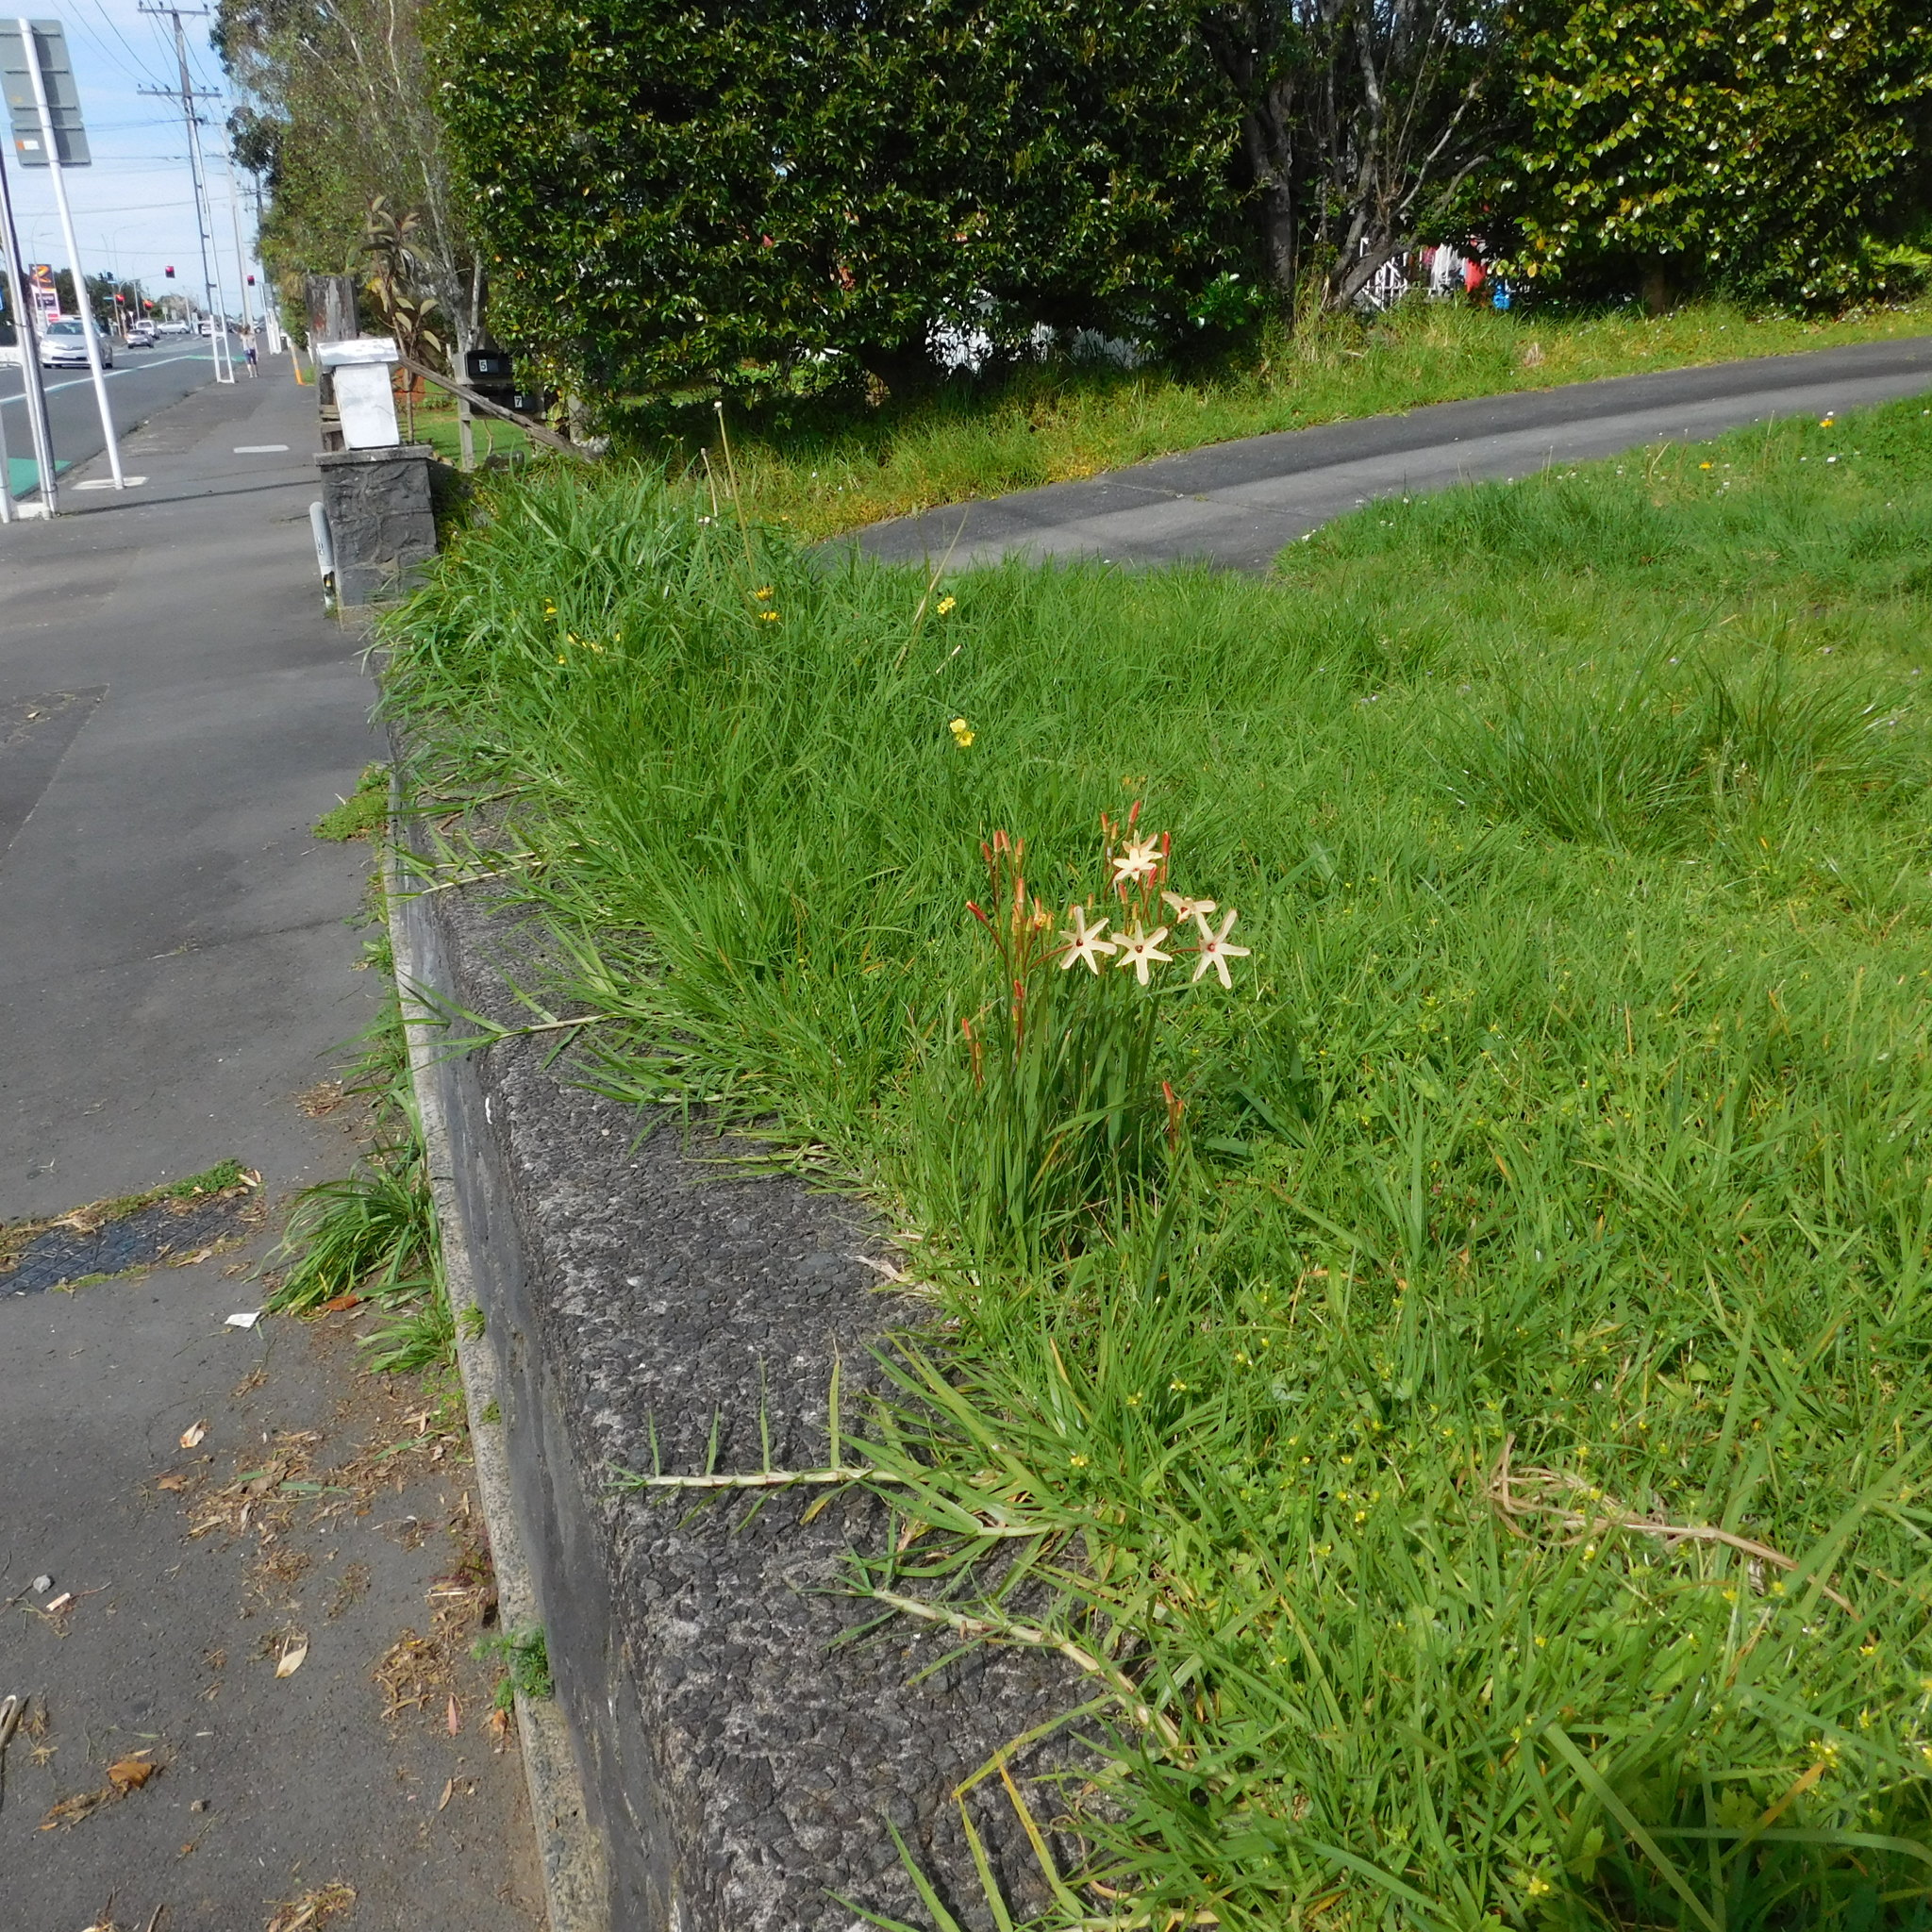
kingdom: Plantae
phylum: Tracheophyta
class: Liliopsida
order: Asparagales
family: Iridaceae
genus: Ixia
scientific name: Ixia paniculata
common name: Tubular corn-lily
